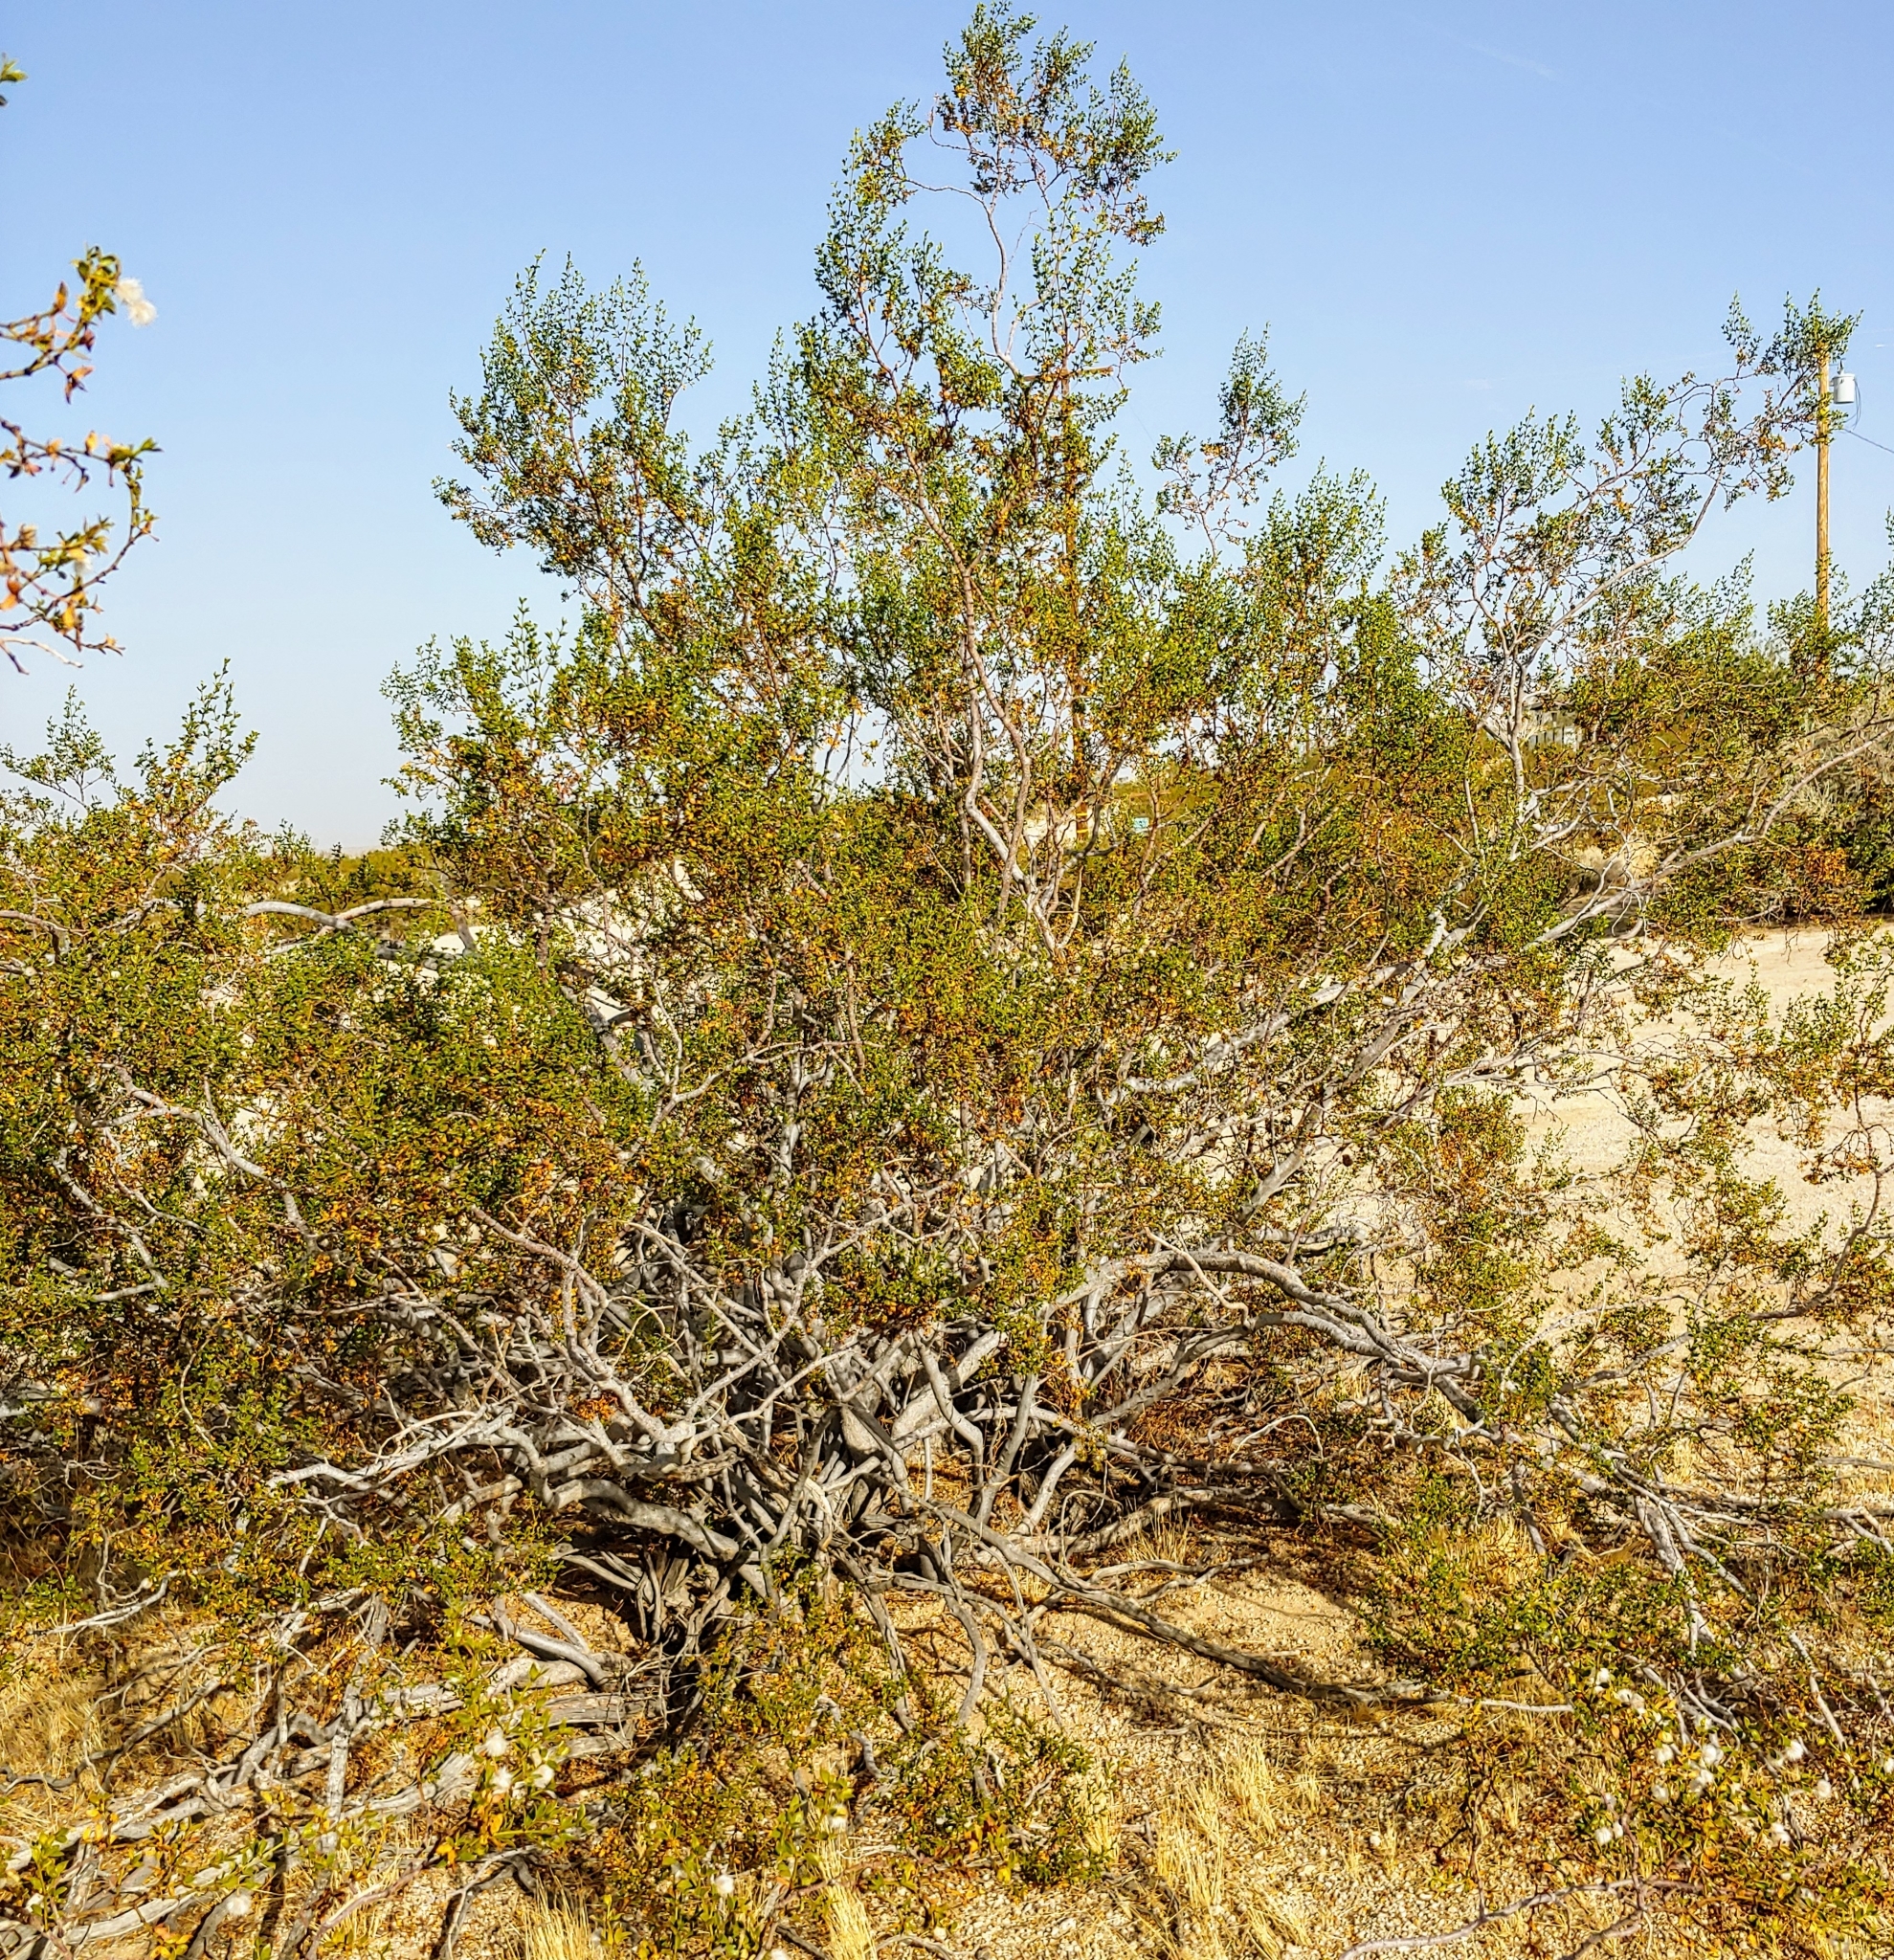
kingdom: Plantae
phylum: Tracheophyta
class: Magnoliopsida
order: Zygophyllales
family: Zygophyllaceae
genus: Larrea
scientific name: Larrea tridentata
